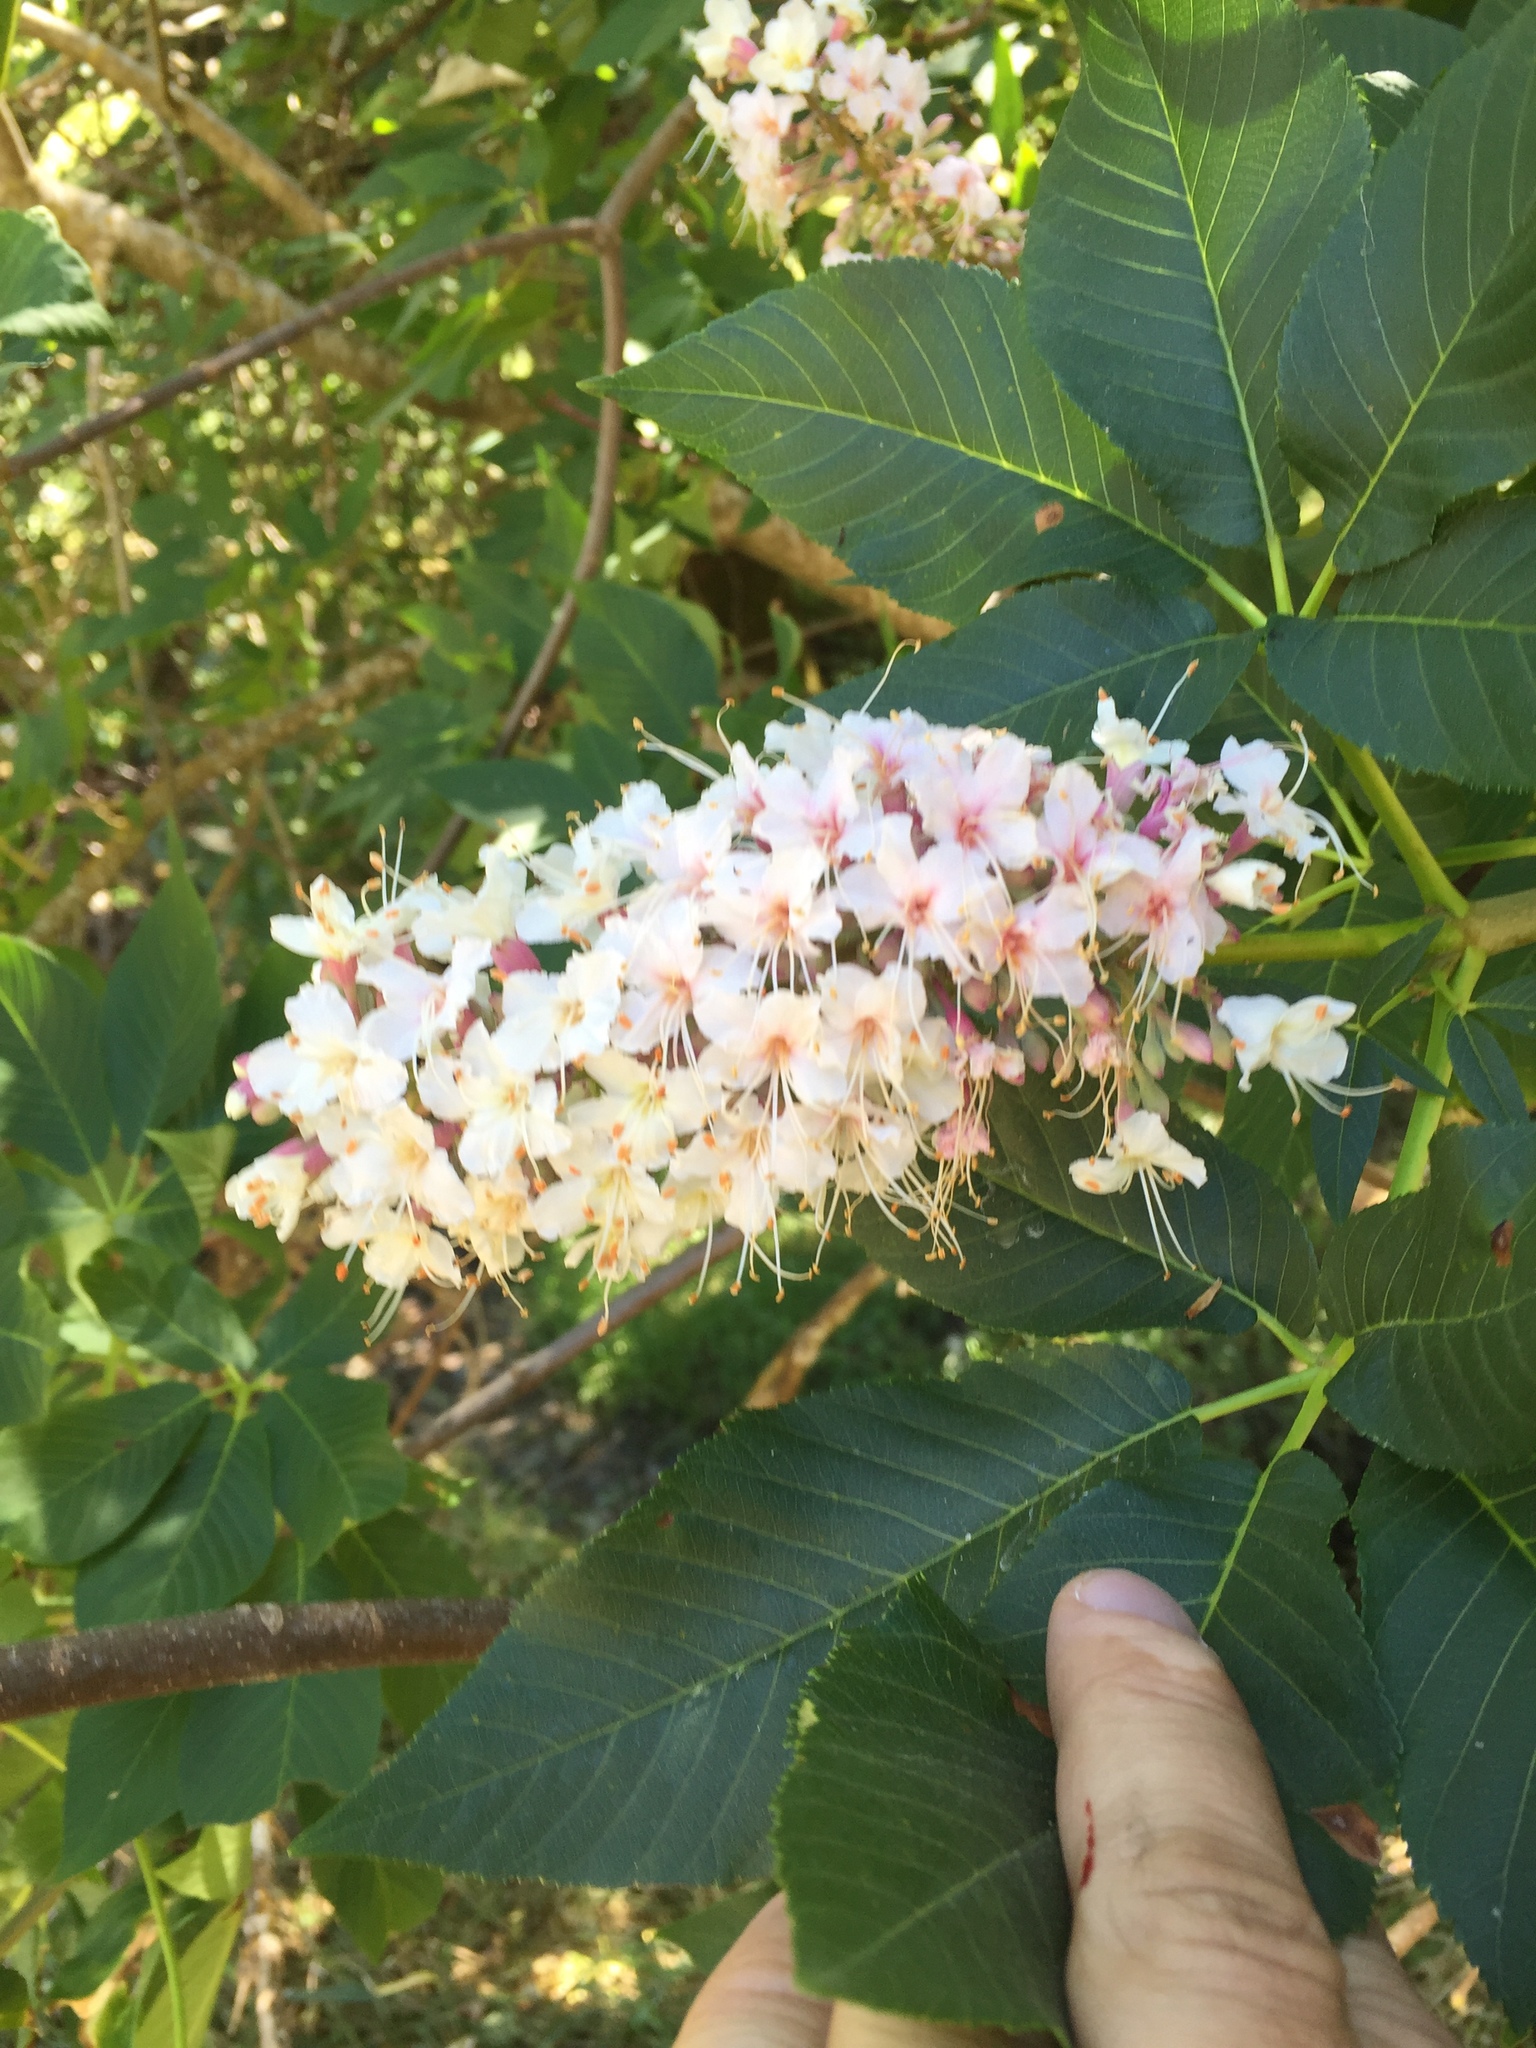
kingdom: Plantae
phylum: Tracheophyta
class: Magnoliopsida
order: Sapindales
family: Sapindaceae
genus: Aesculus
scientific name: Aesculus californica
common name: California buckeye
